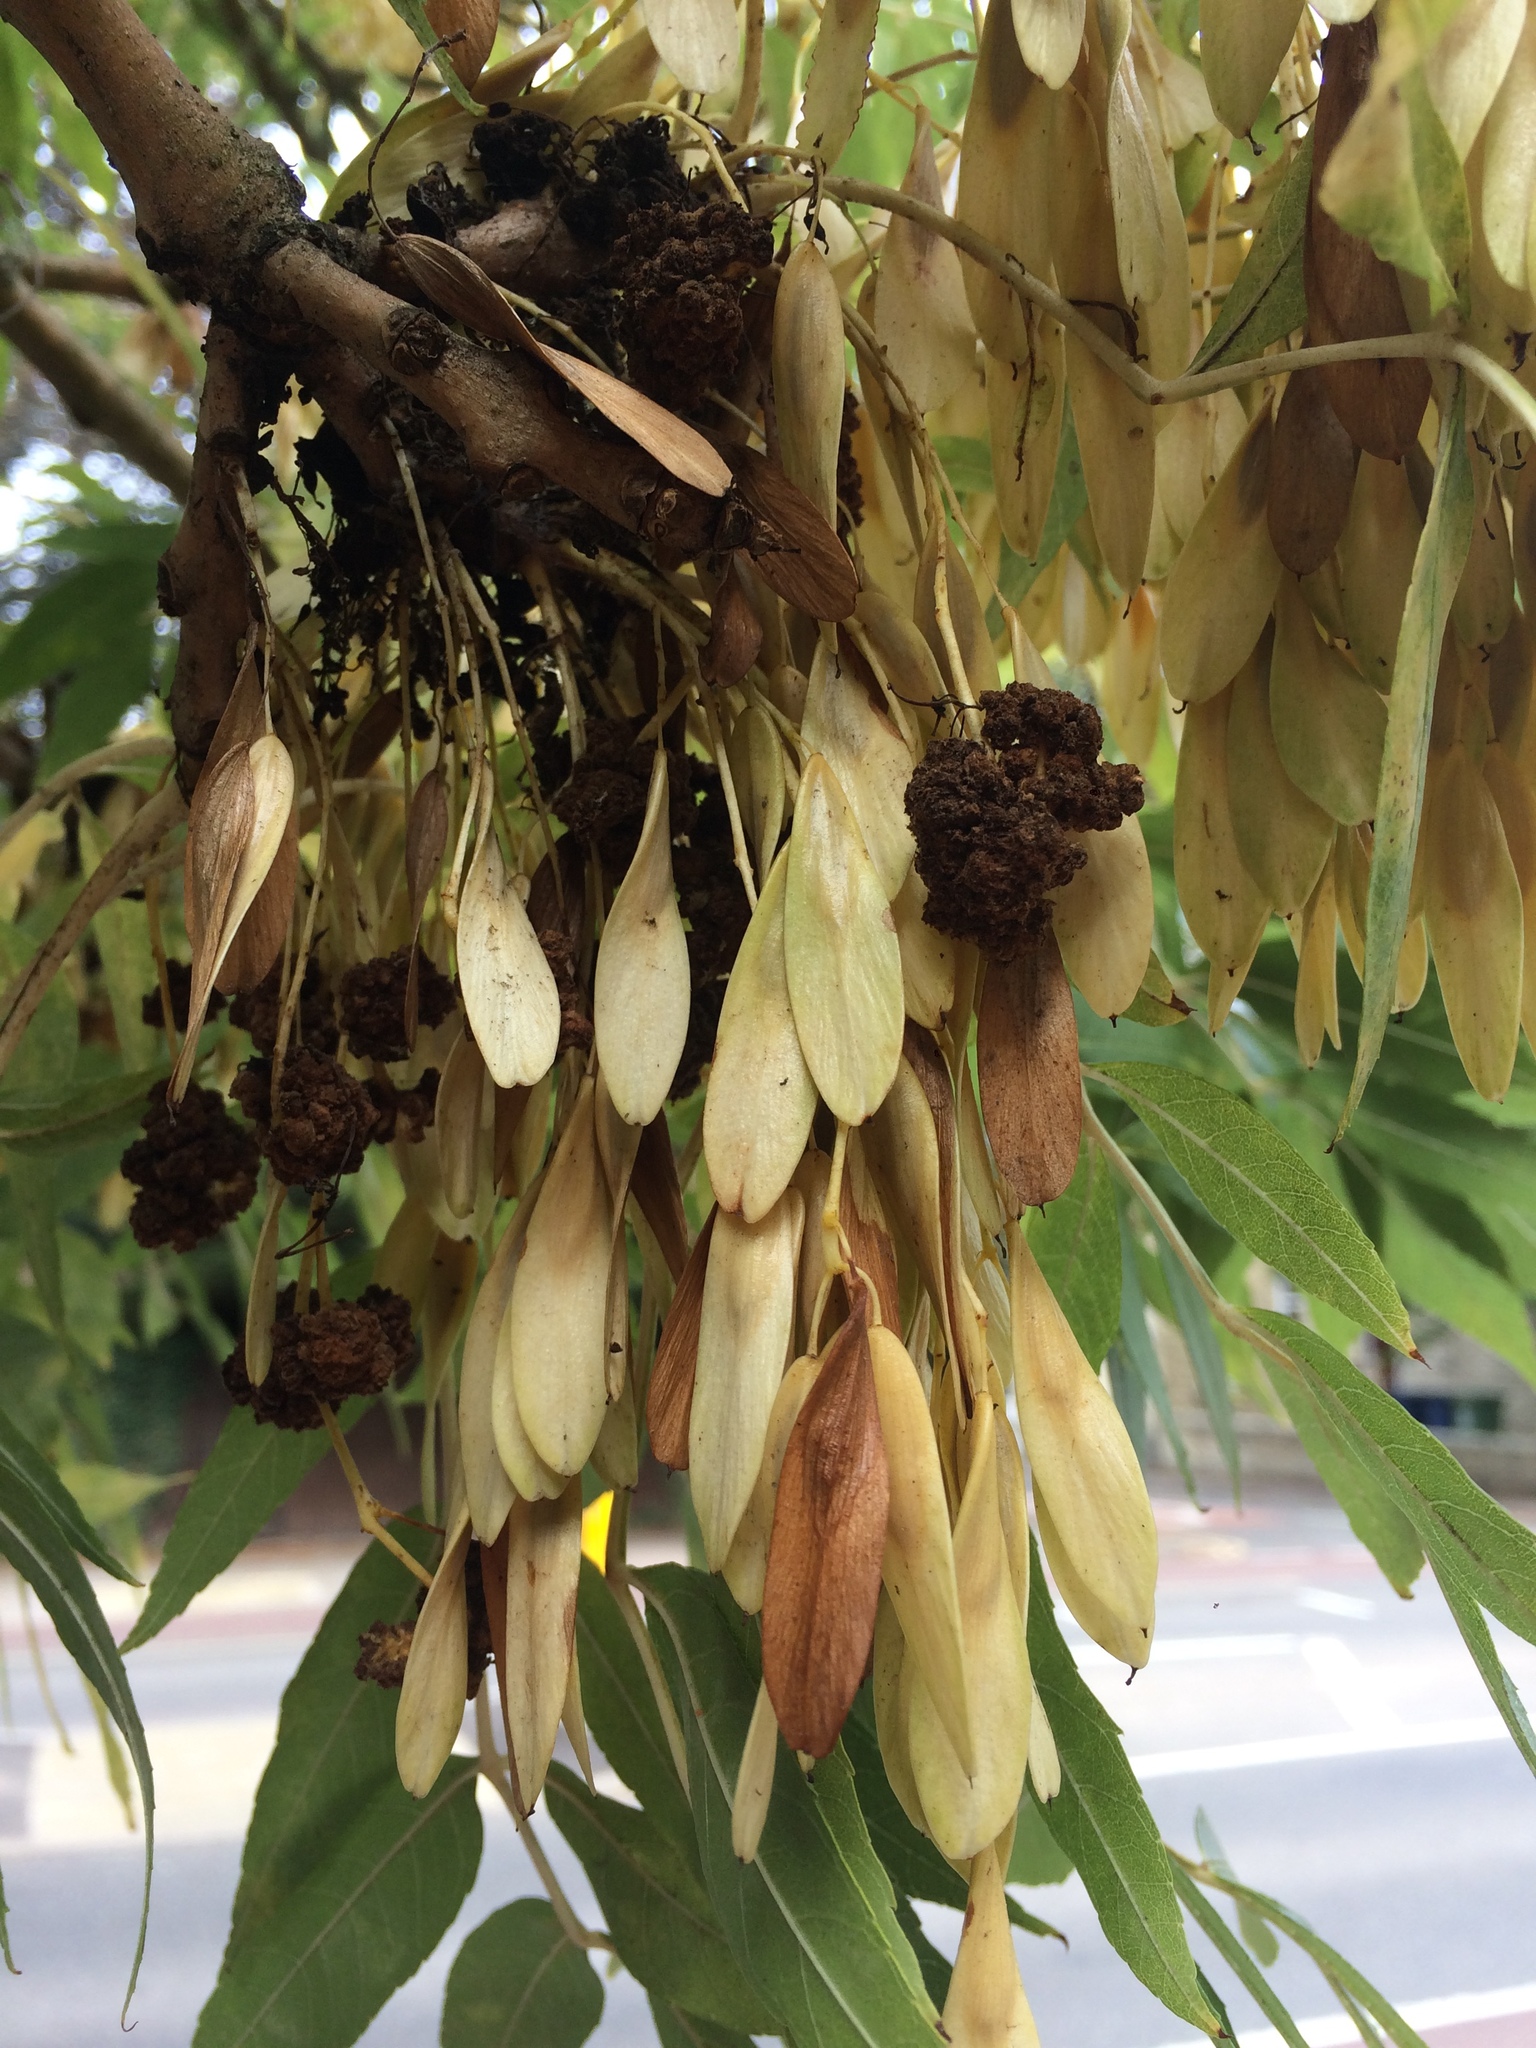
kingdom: Animalia
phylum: Arthropoda
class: Arachnida
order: Trombidiformes
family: Eriophyidae
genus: Aceria
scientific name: Aceria fraxinivora
